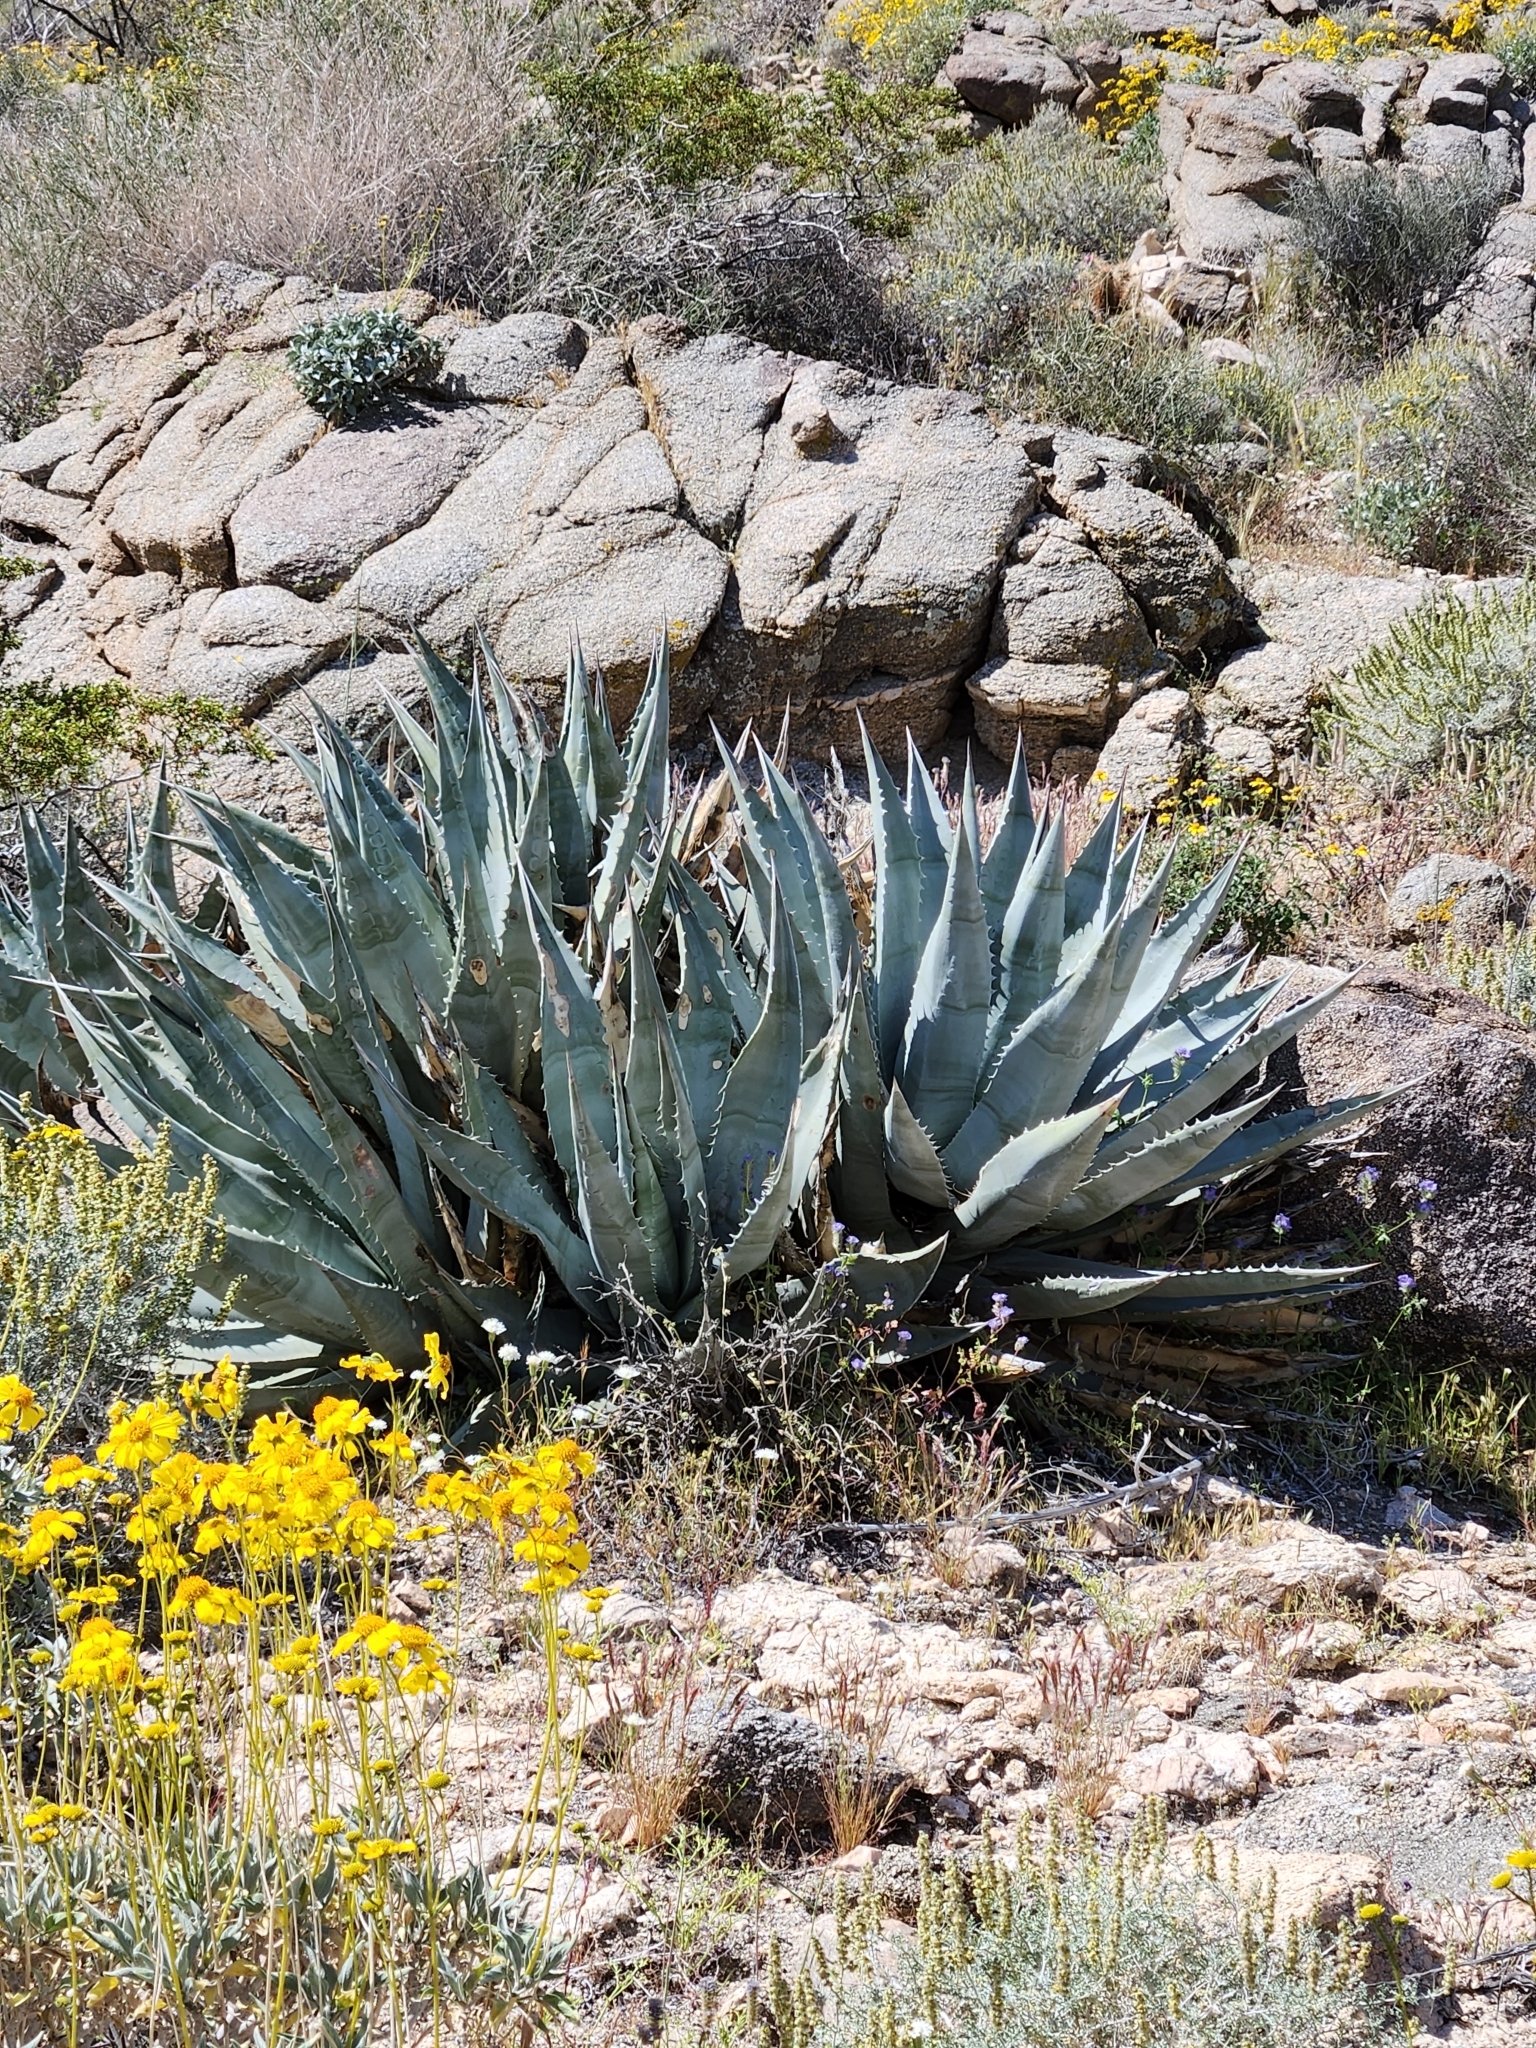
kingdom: Plantae
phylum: Tracheophyta
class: Liliopsida
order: Asparagales
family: Asparagaceae
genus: Agave
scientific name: Agave deserti
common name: Desert agave
